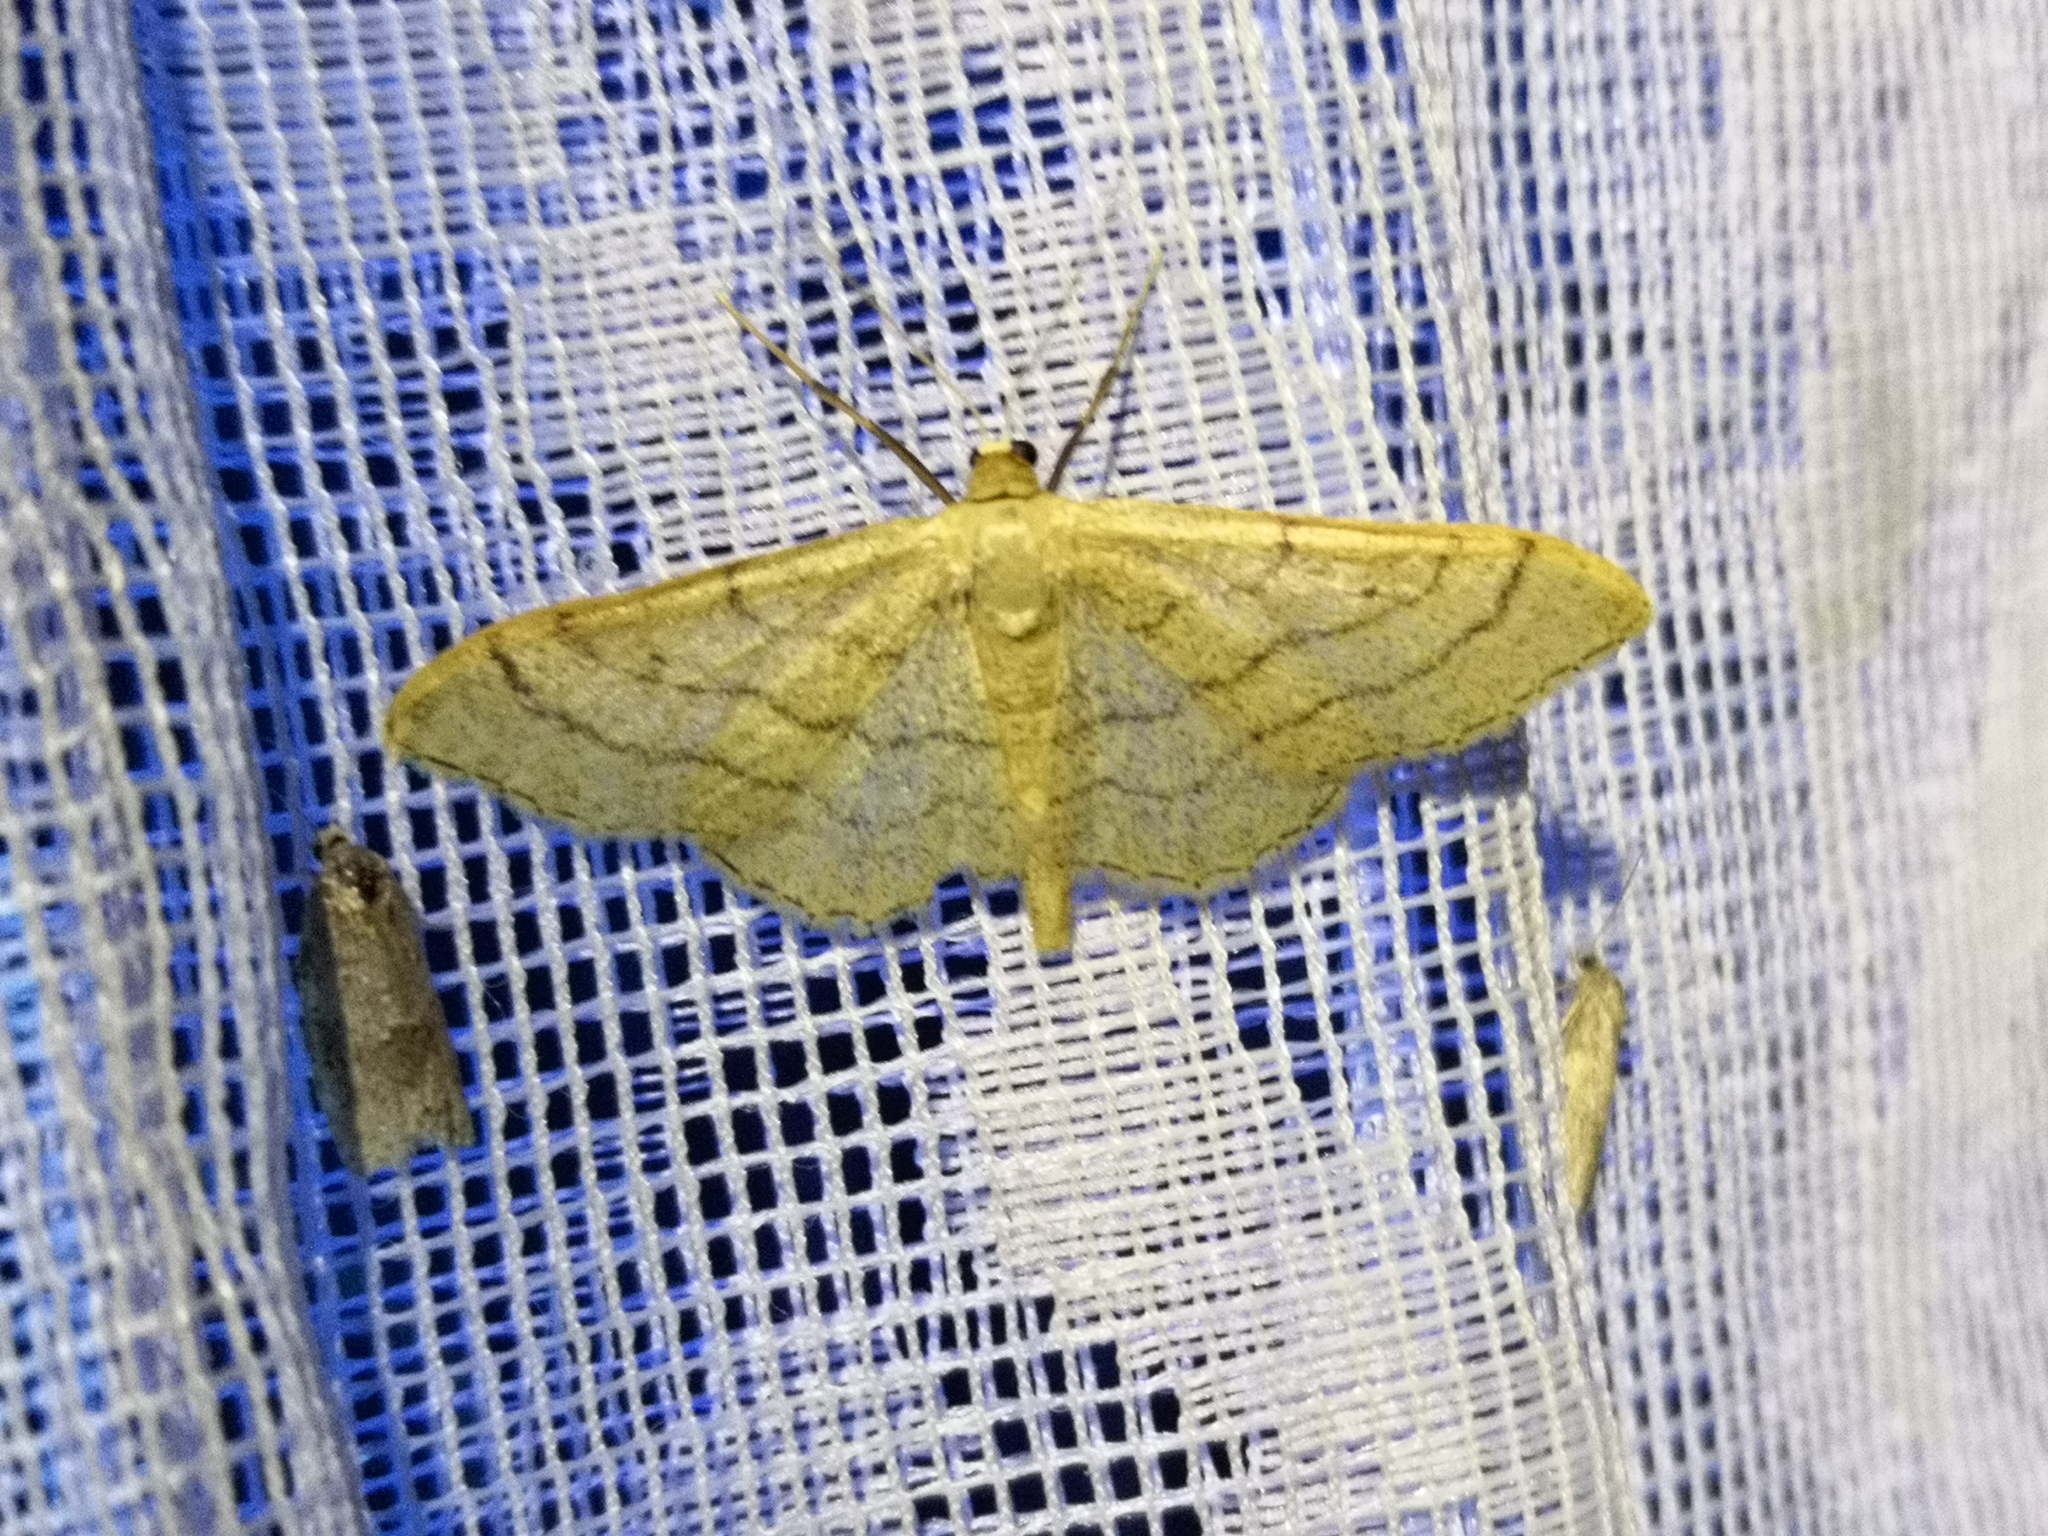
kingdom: Animalia
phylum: Arthropoda
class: Insecta
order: Lepidoptera
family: Geometridae
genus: Idaea
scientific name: Idaea aversata
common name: Riband wave
